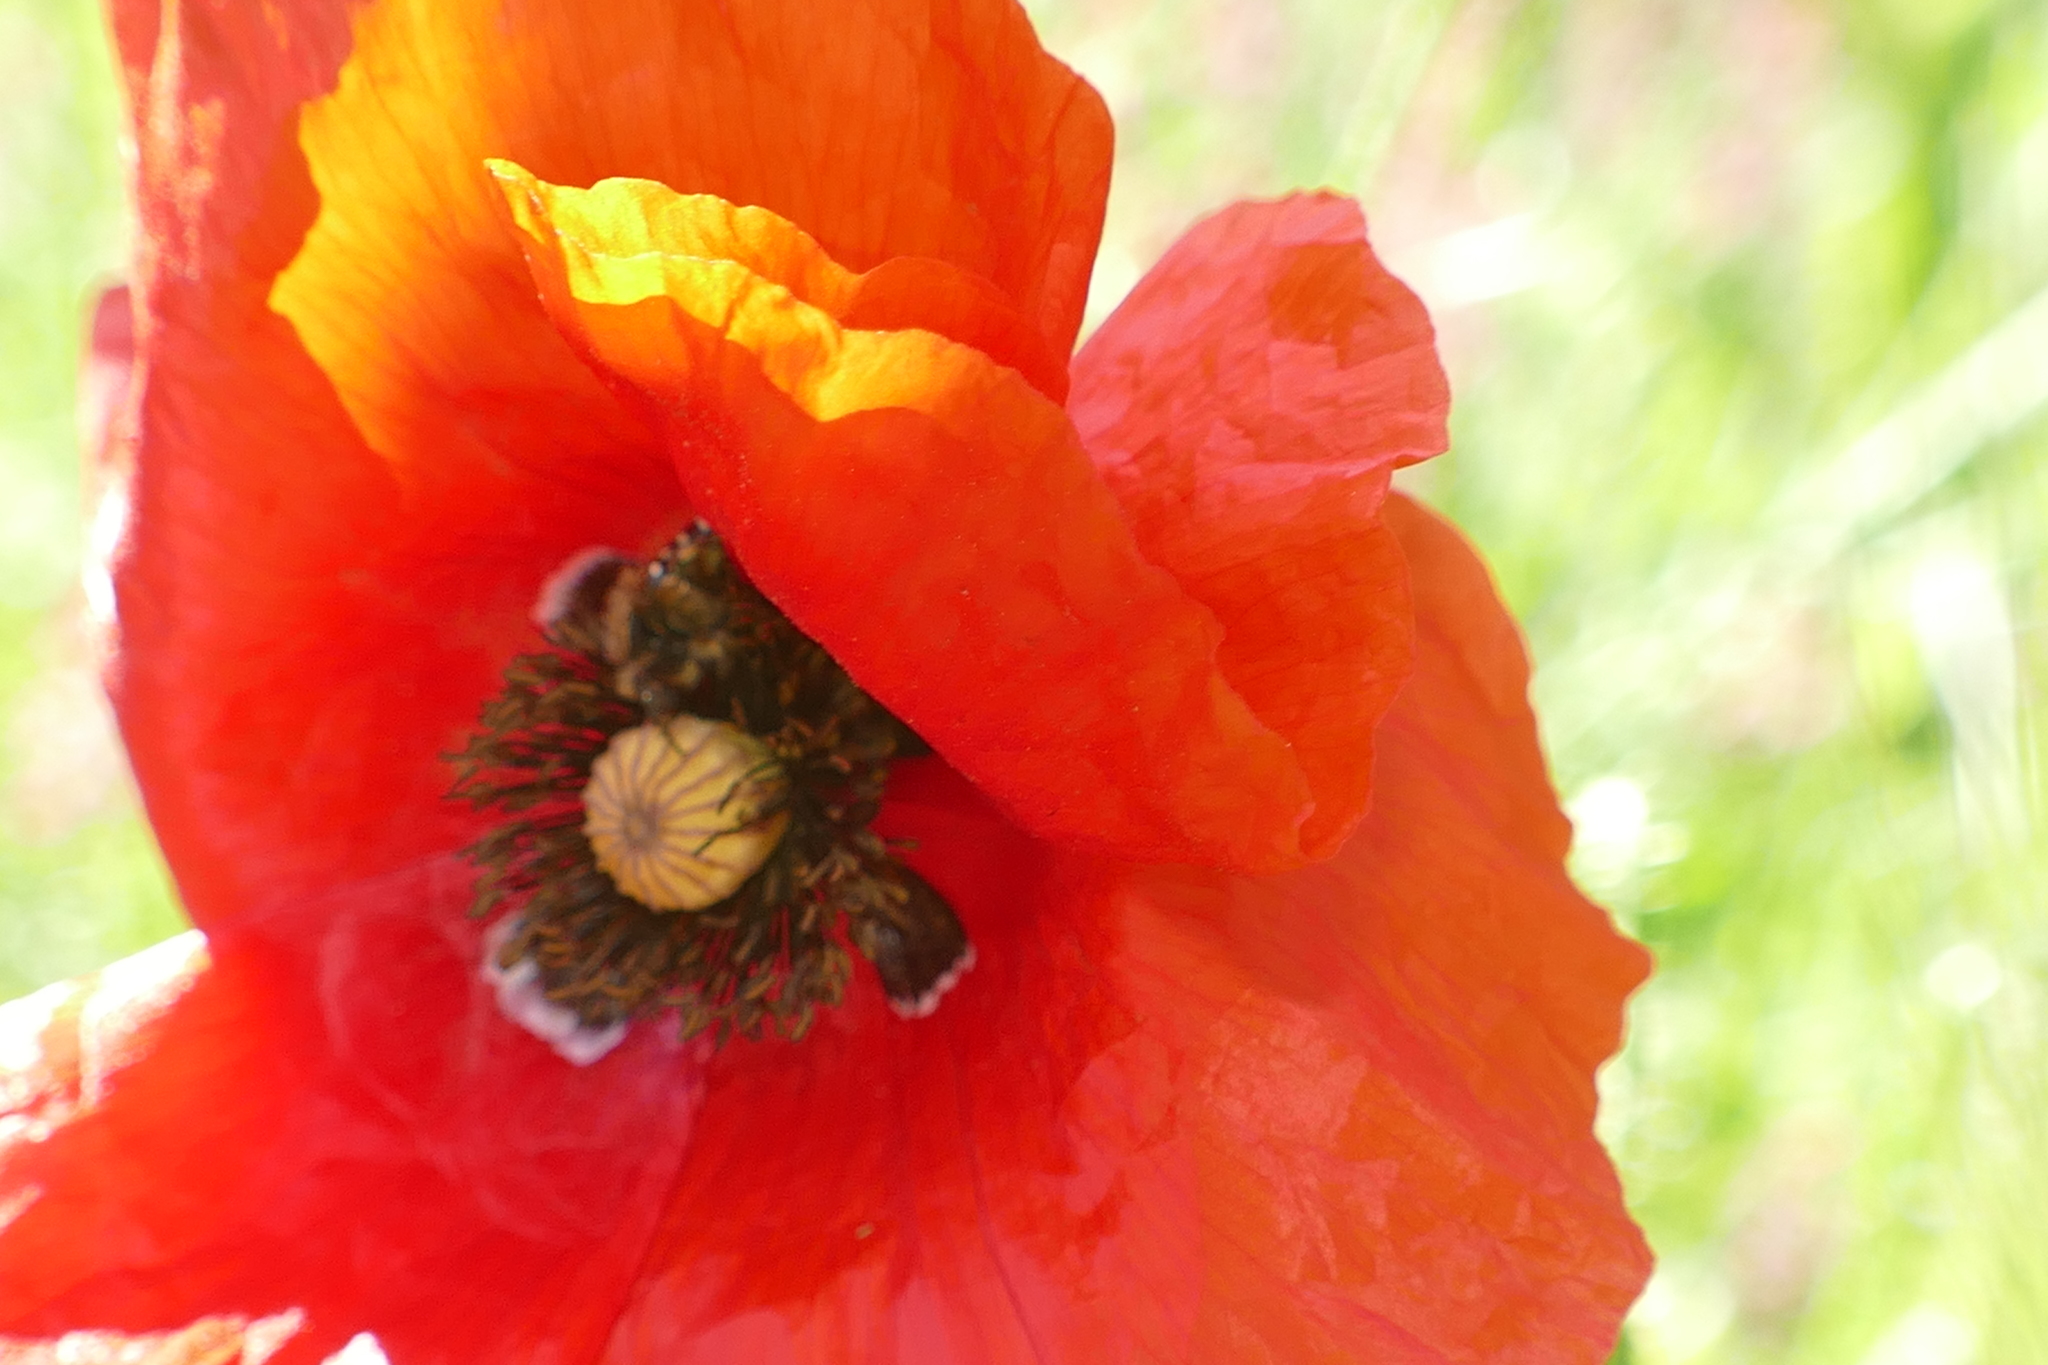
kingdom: Plantae
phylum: Tracheophyta
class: Magnoliopsida
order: Ranunculales
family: Papaveraceae
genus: Papaver
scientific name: Papaver rhoeas
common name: Corn poppy
